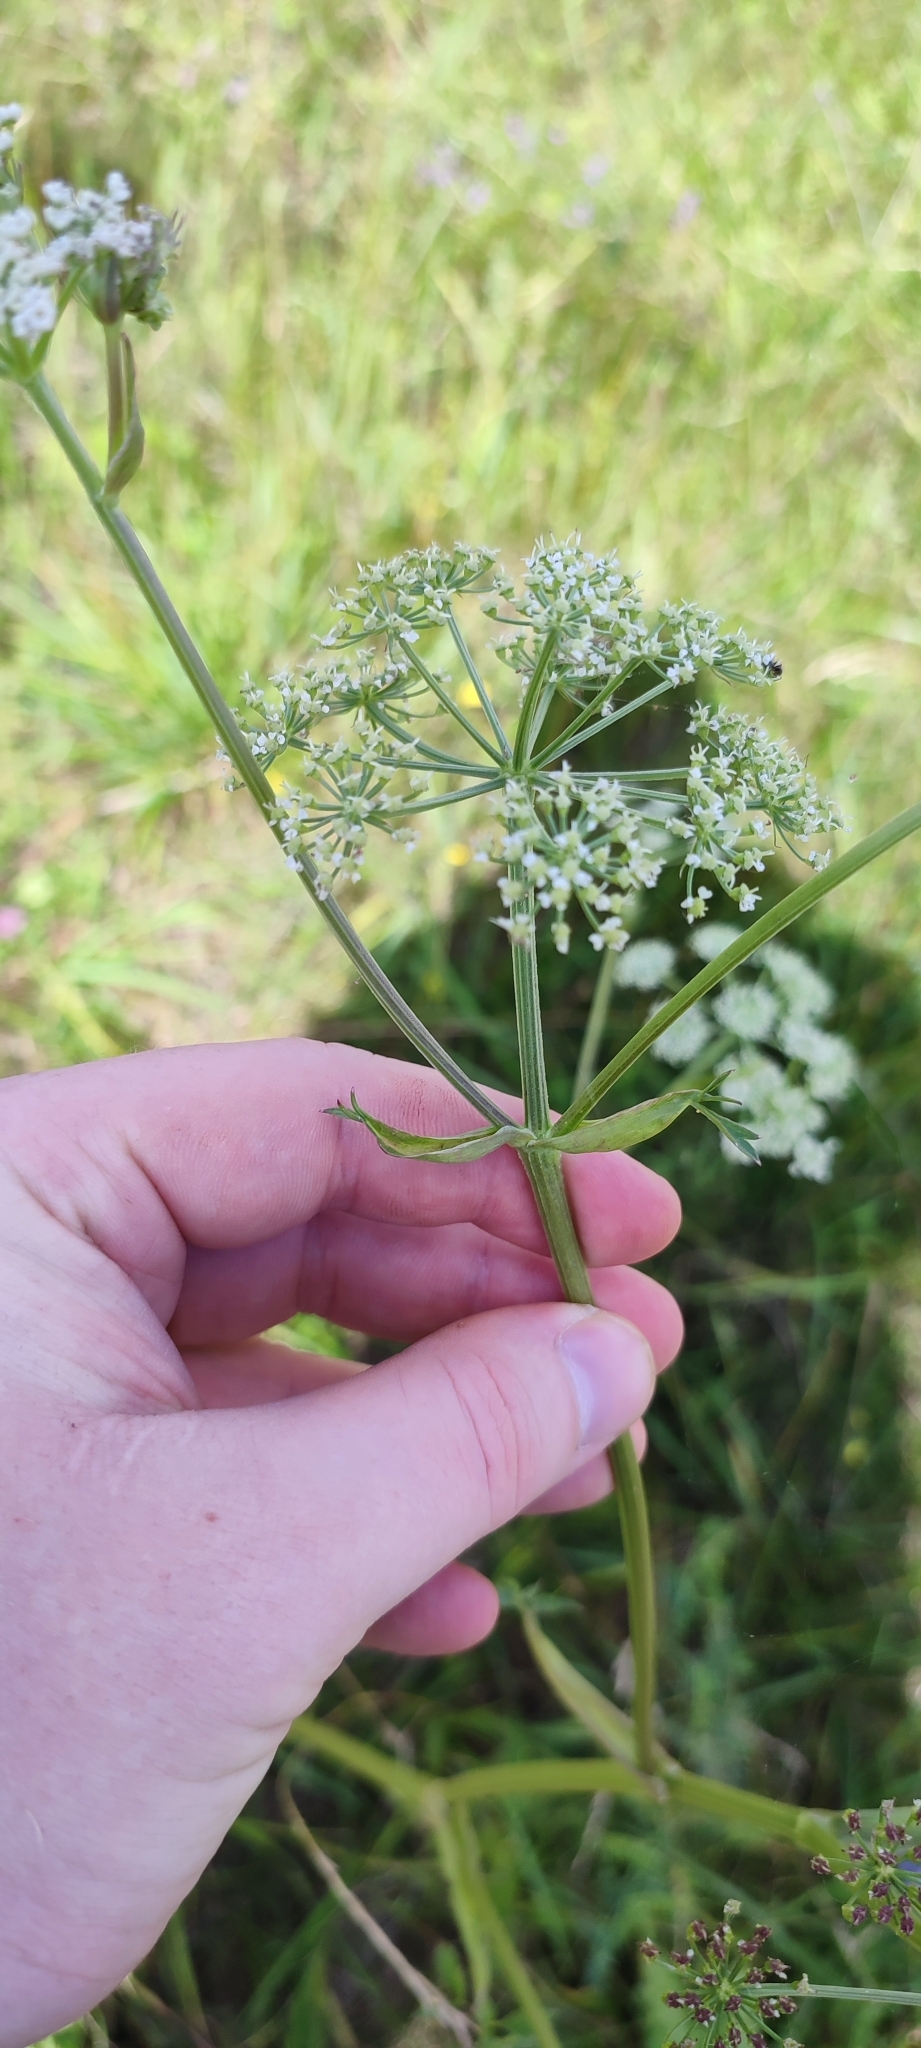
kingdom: Plantae
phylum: Tracheophyta
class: Magnoliopsida
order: Apiales
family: Apiaceae
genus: Ostericum
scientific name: Ostericum palustre
